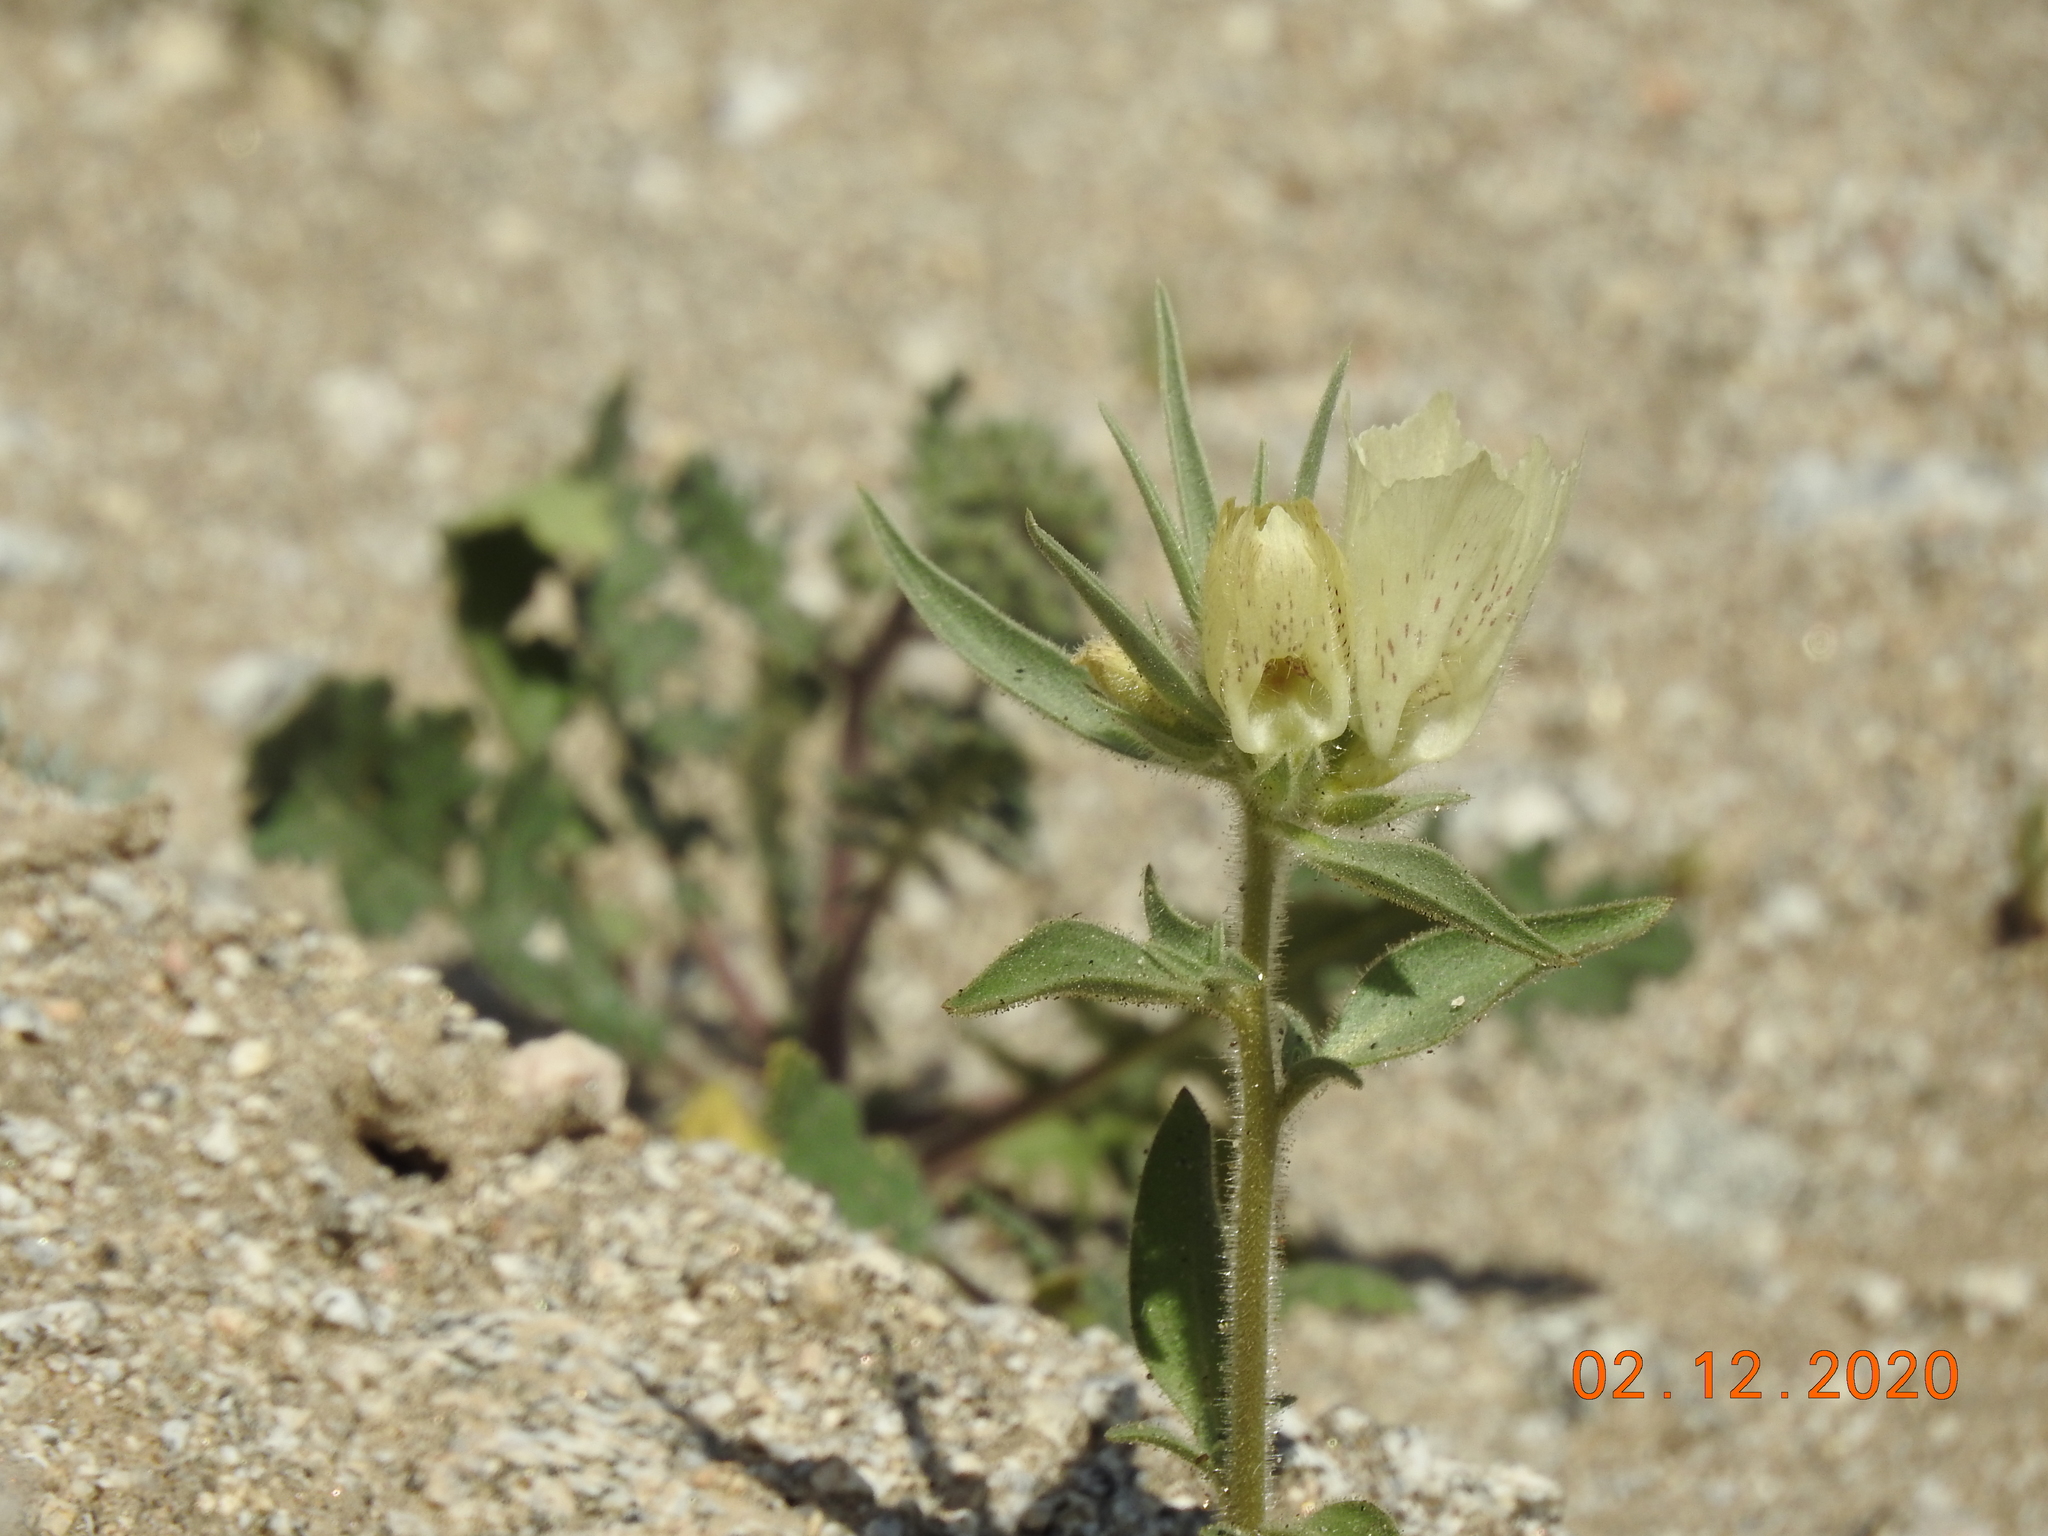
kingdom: Plantae
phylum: Tracheophyta
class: Magnoliopsida
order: Lamiales
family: Plantaginaceae
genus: Mohavea
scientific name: Mohavea confertiflora
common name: Ghost flower
